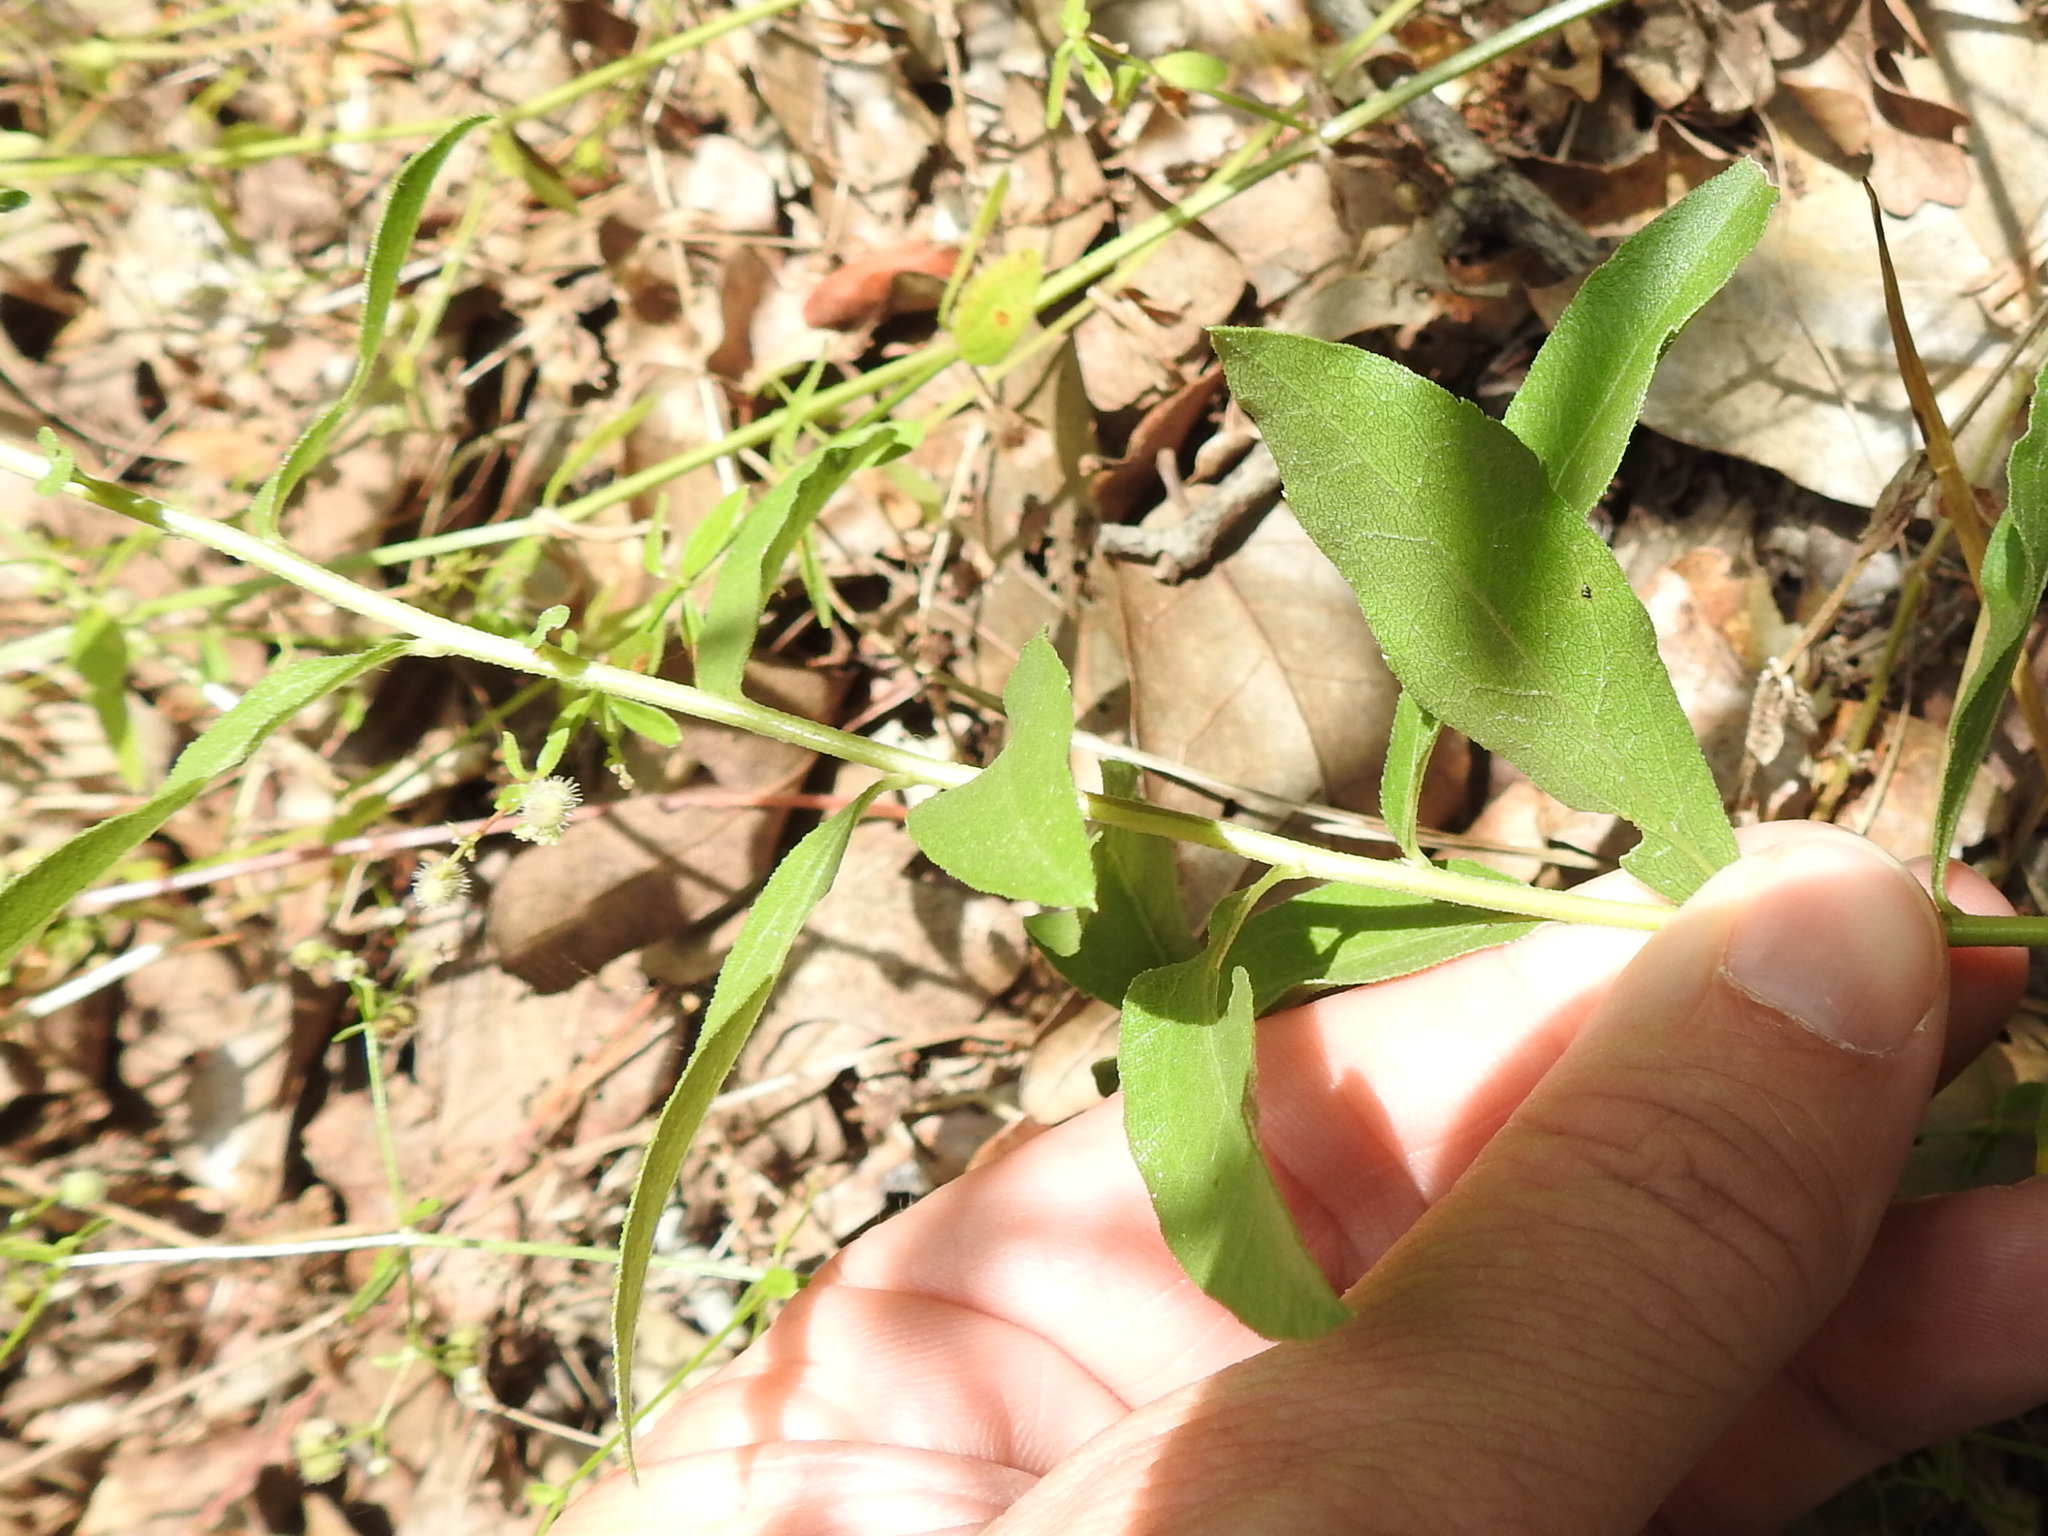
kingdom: Plantae
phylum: Tracheophyta
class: Magnoliopsida
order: Asterales
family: Asteraceae
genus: Solidago
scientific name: Solidago ulmifolia
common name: Elm-leaf goldenrod
